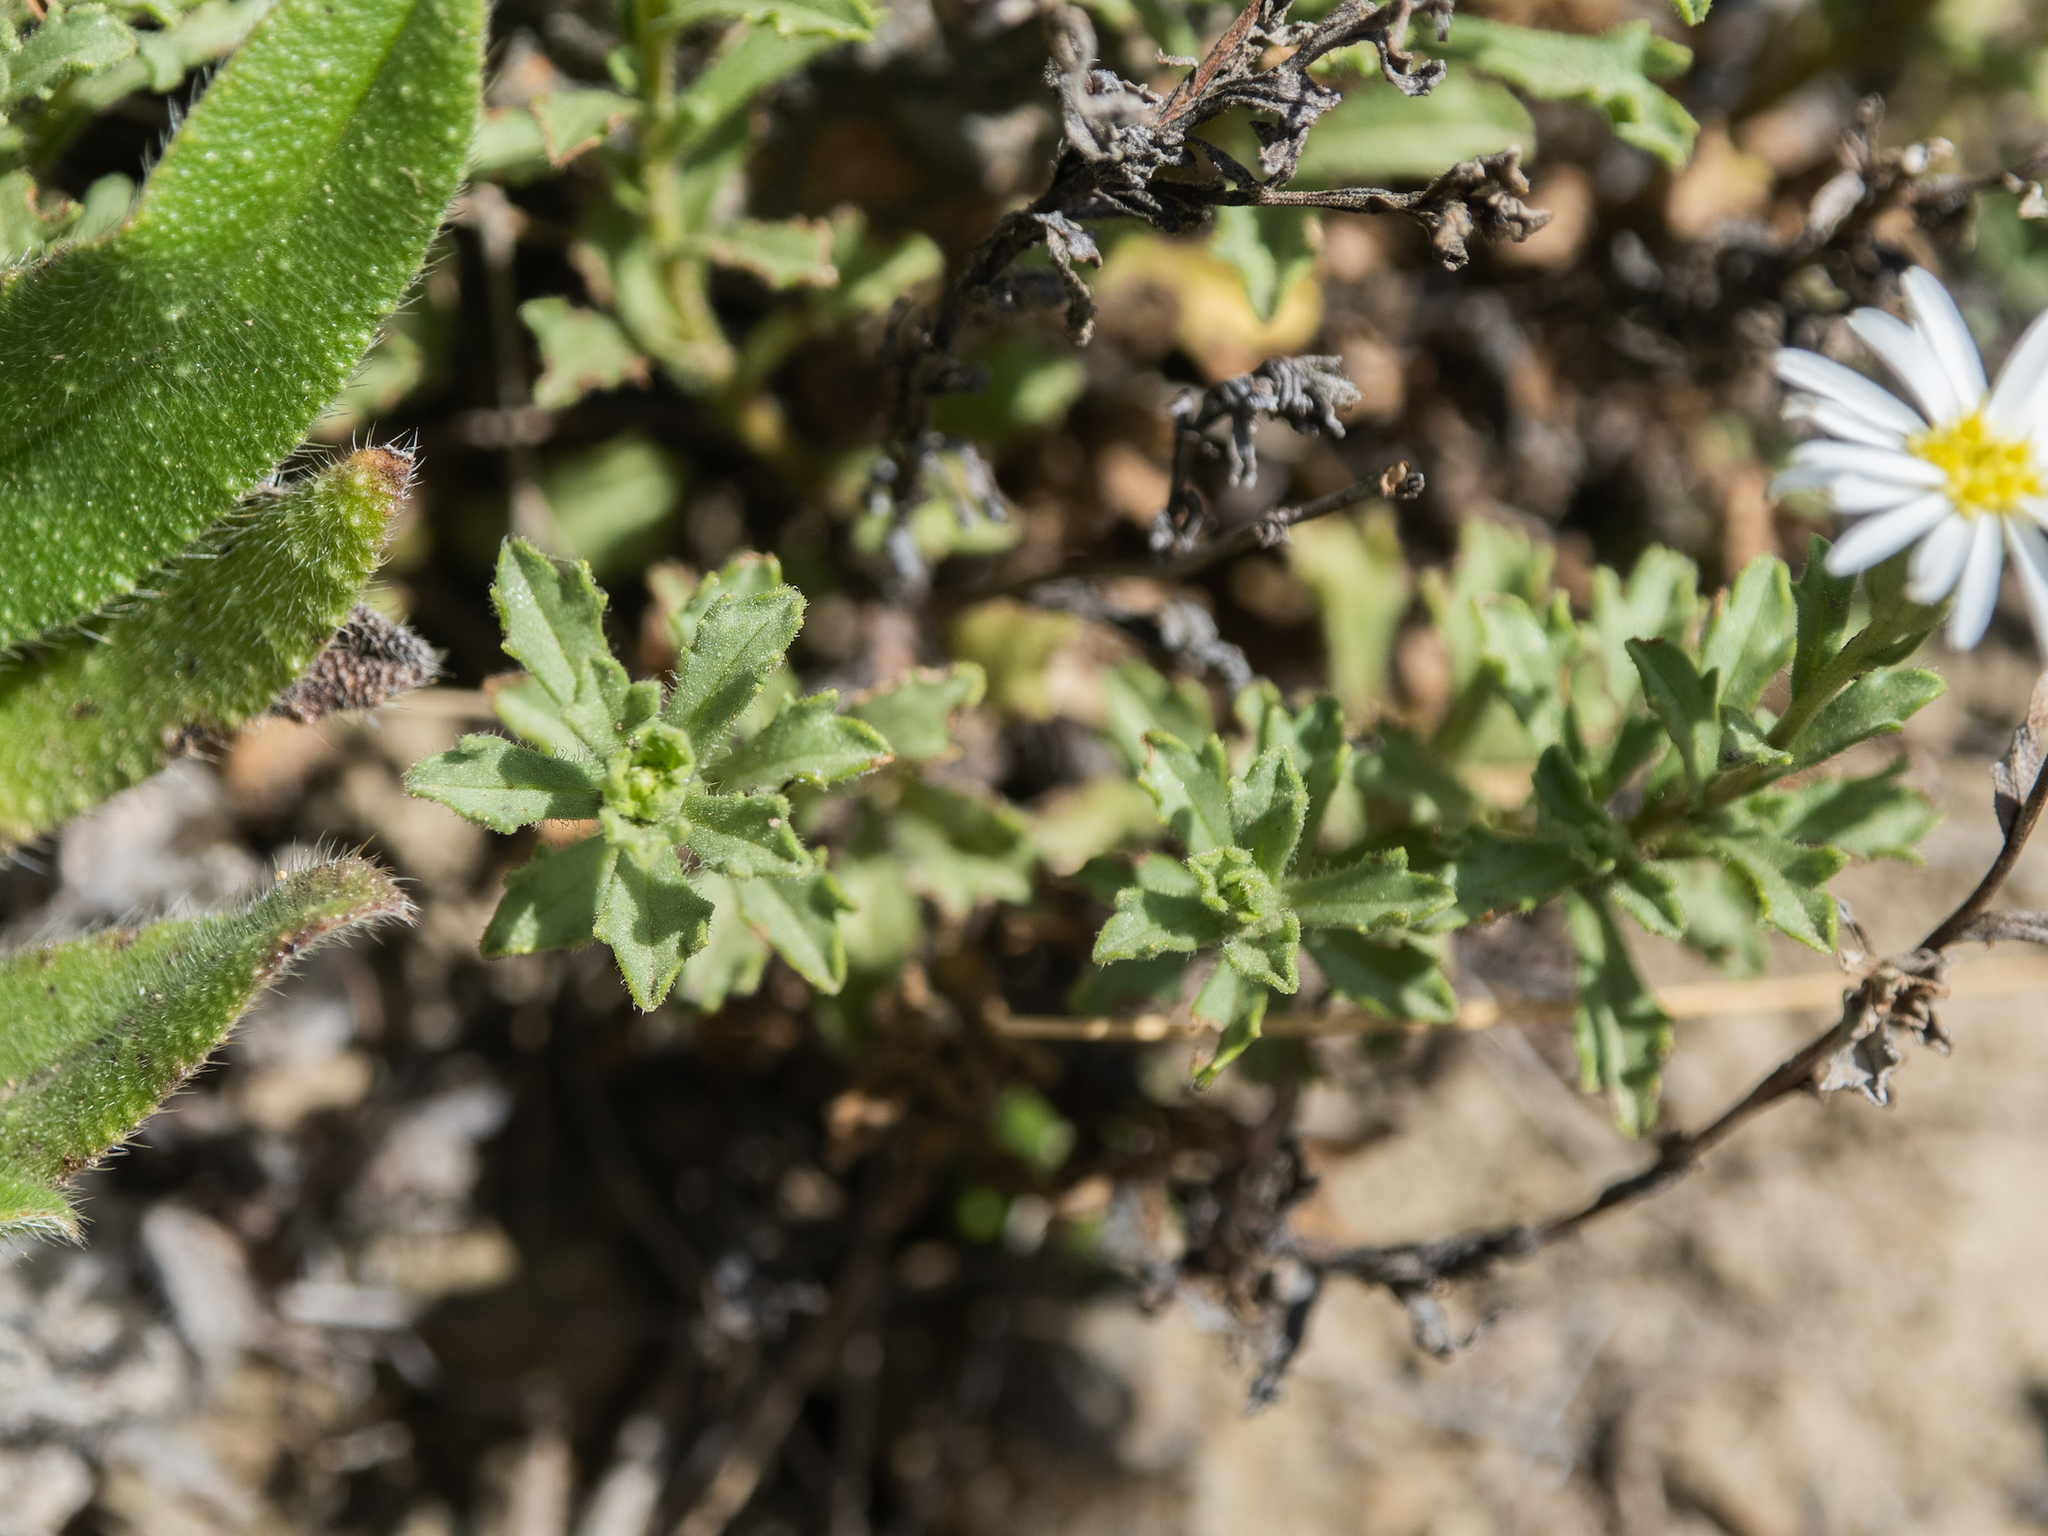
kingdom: Plantae
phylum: Tracheophyta
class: Magnoliopsida
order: Asterales
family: Asteraceae
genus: Vittadinia
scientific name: Vittadinia australis
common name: White fuzzweed
